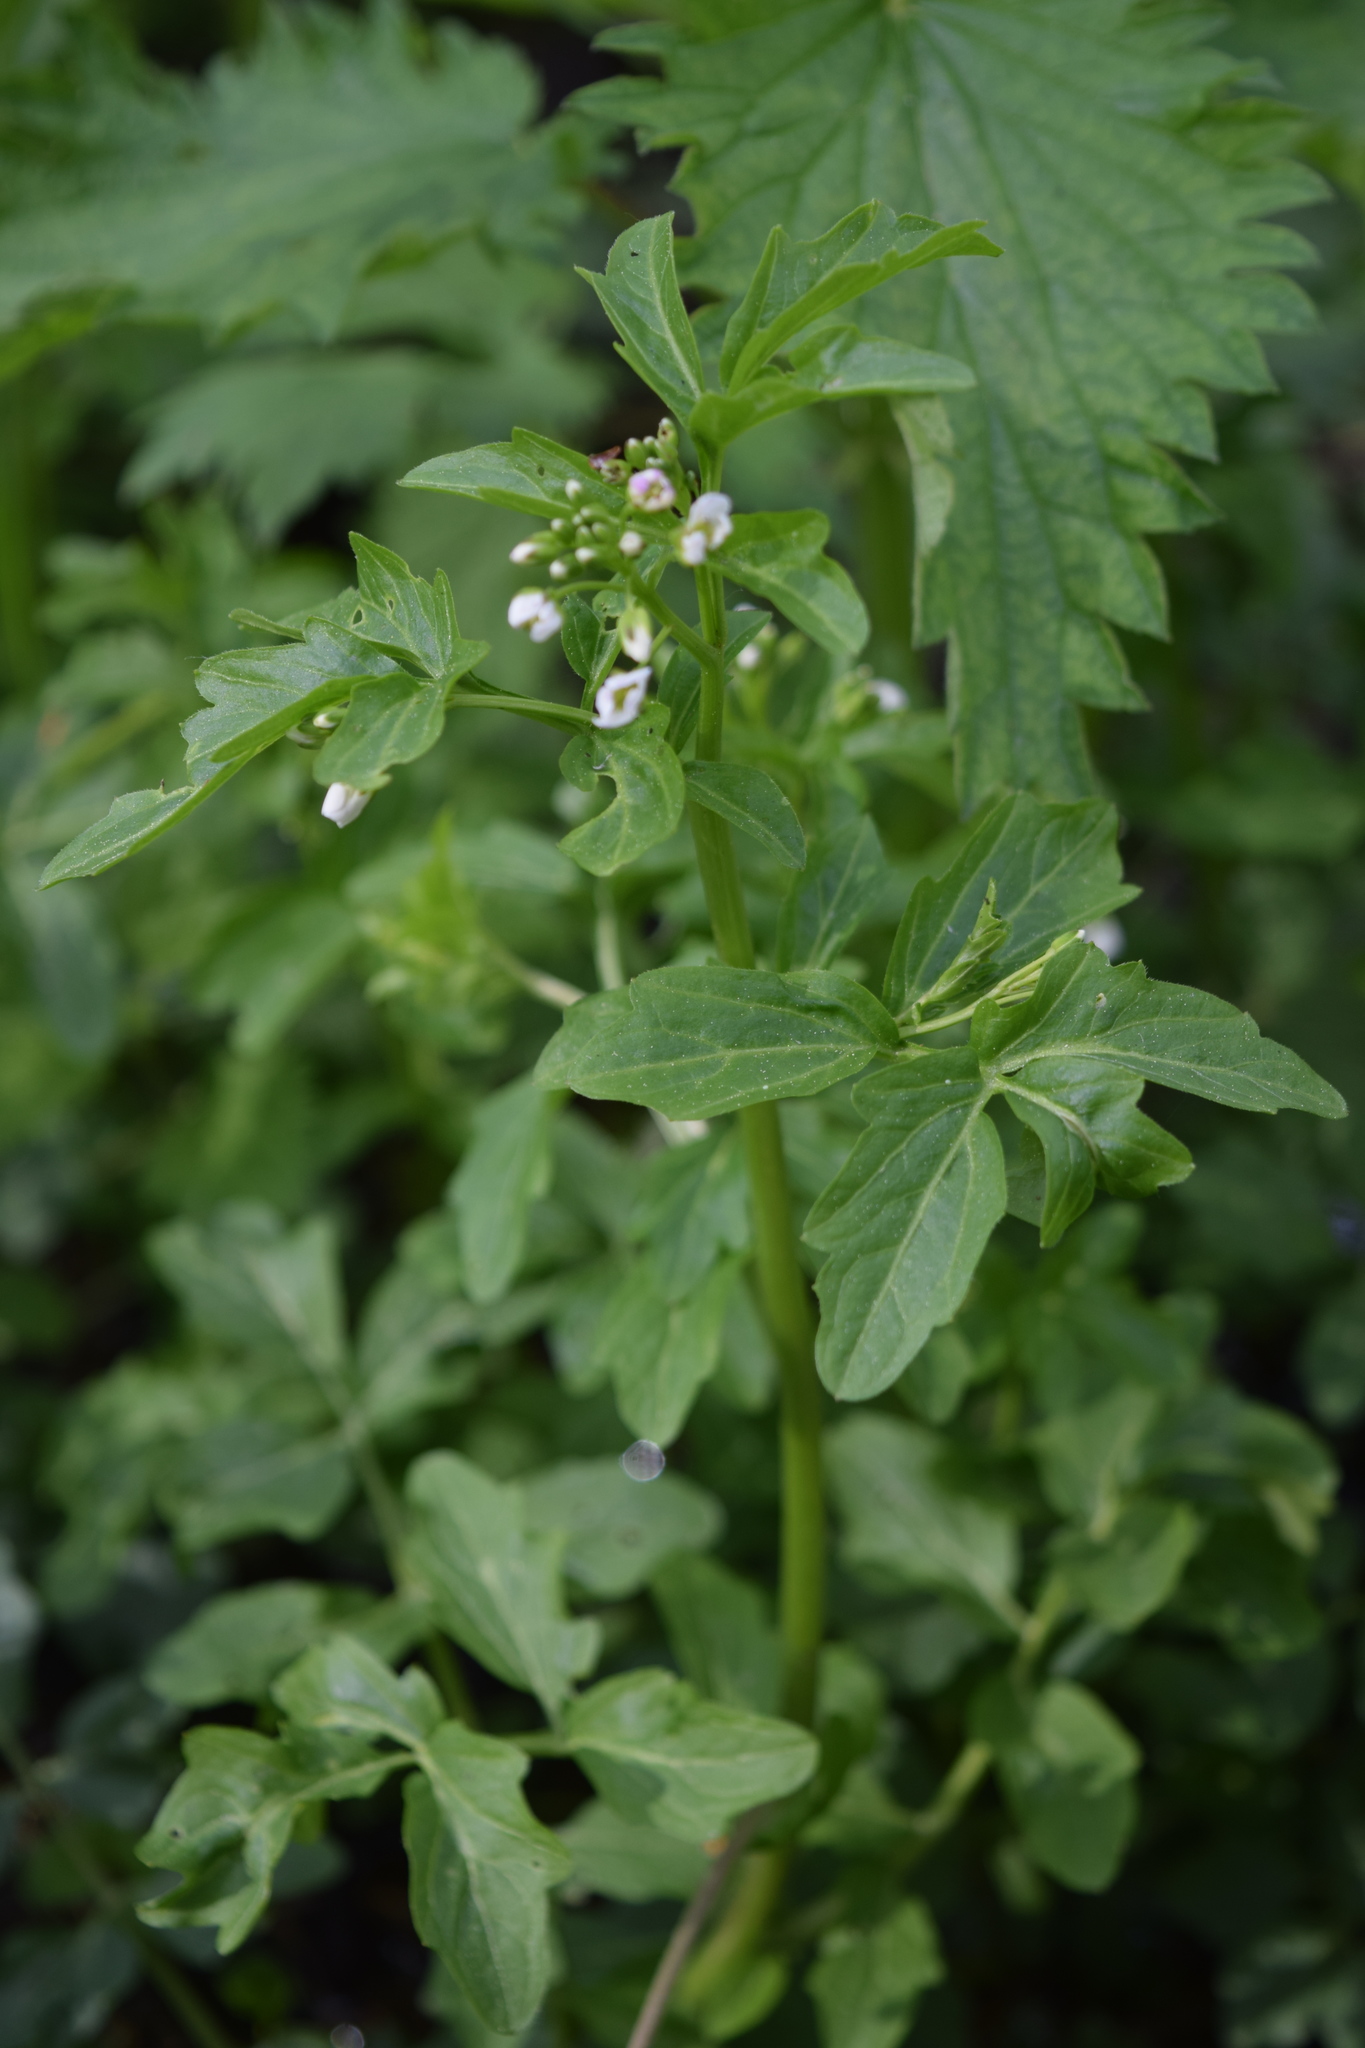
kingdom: Plantae
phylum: Tracheophyta
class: Magnoliopsida
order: Brassicales
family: Brassicaceae
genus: Cardamine
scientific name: Cardamine amara
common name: Large bitter-cress
